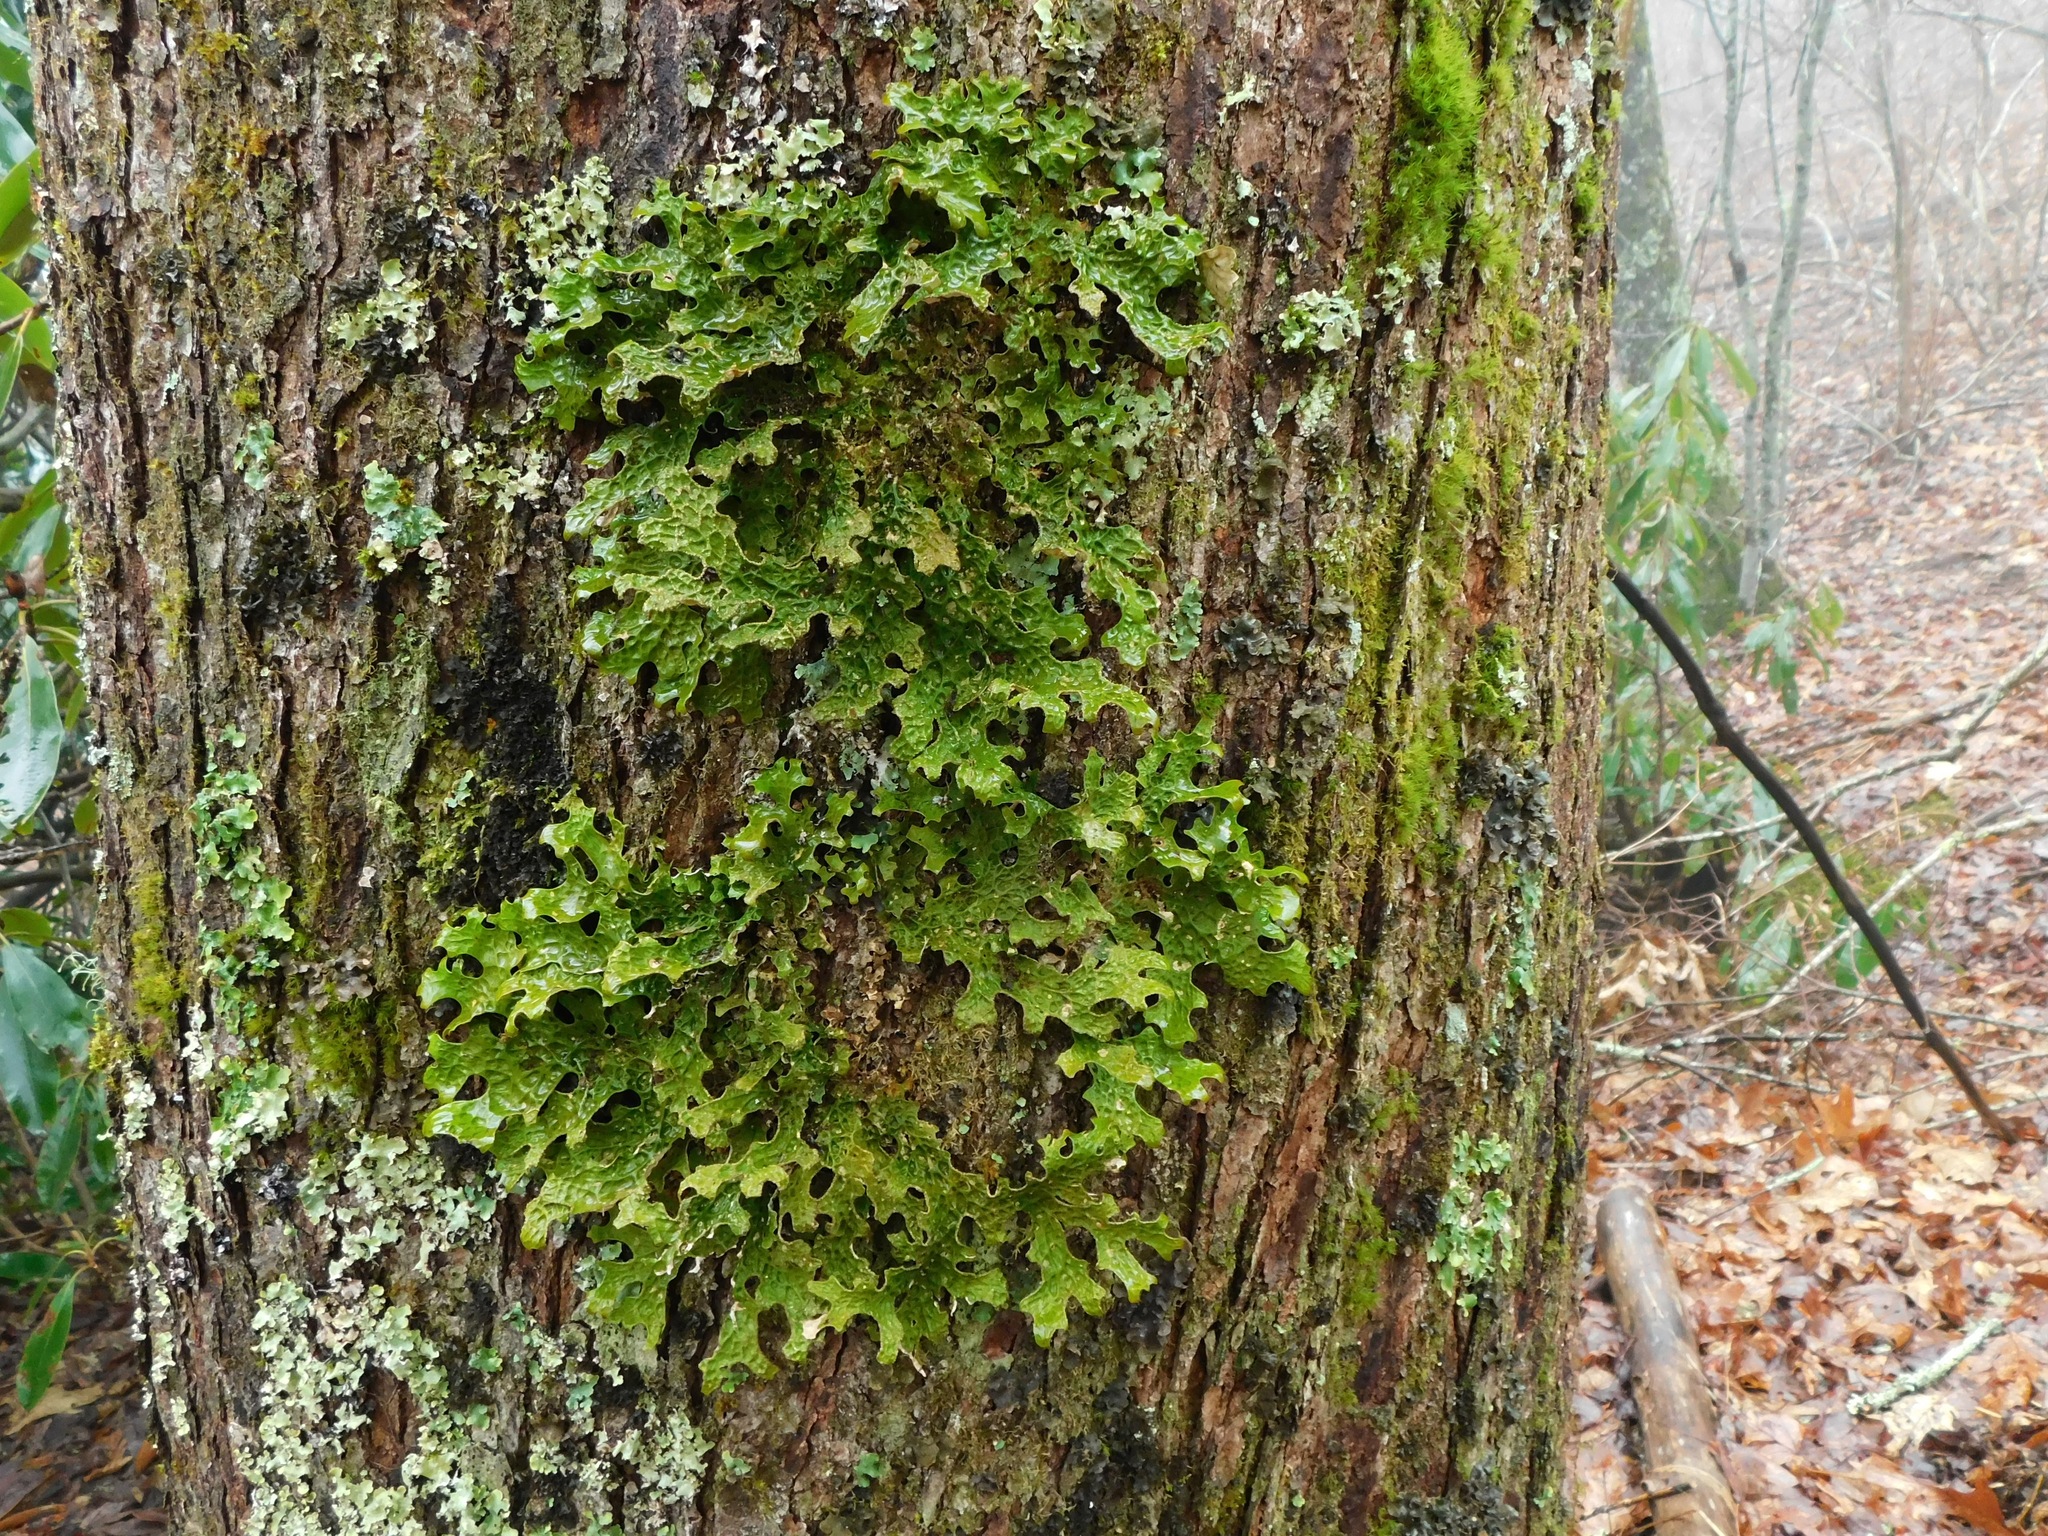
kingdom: Fungi
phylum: Ascomycota
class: Lecanoromycetes
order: Peltigerales
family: Lobariaceae
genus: Lobaria
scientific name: Lobaria pulmonaria
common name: Lungwort
